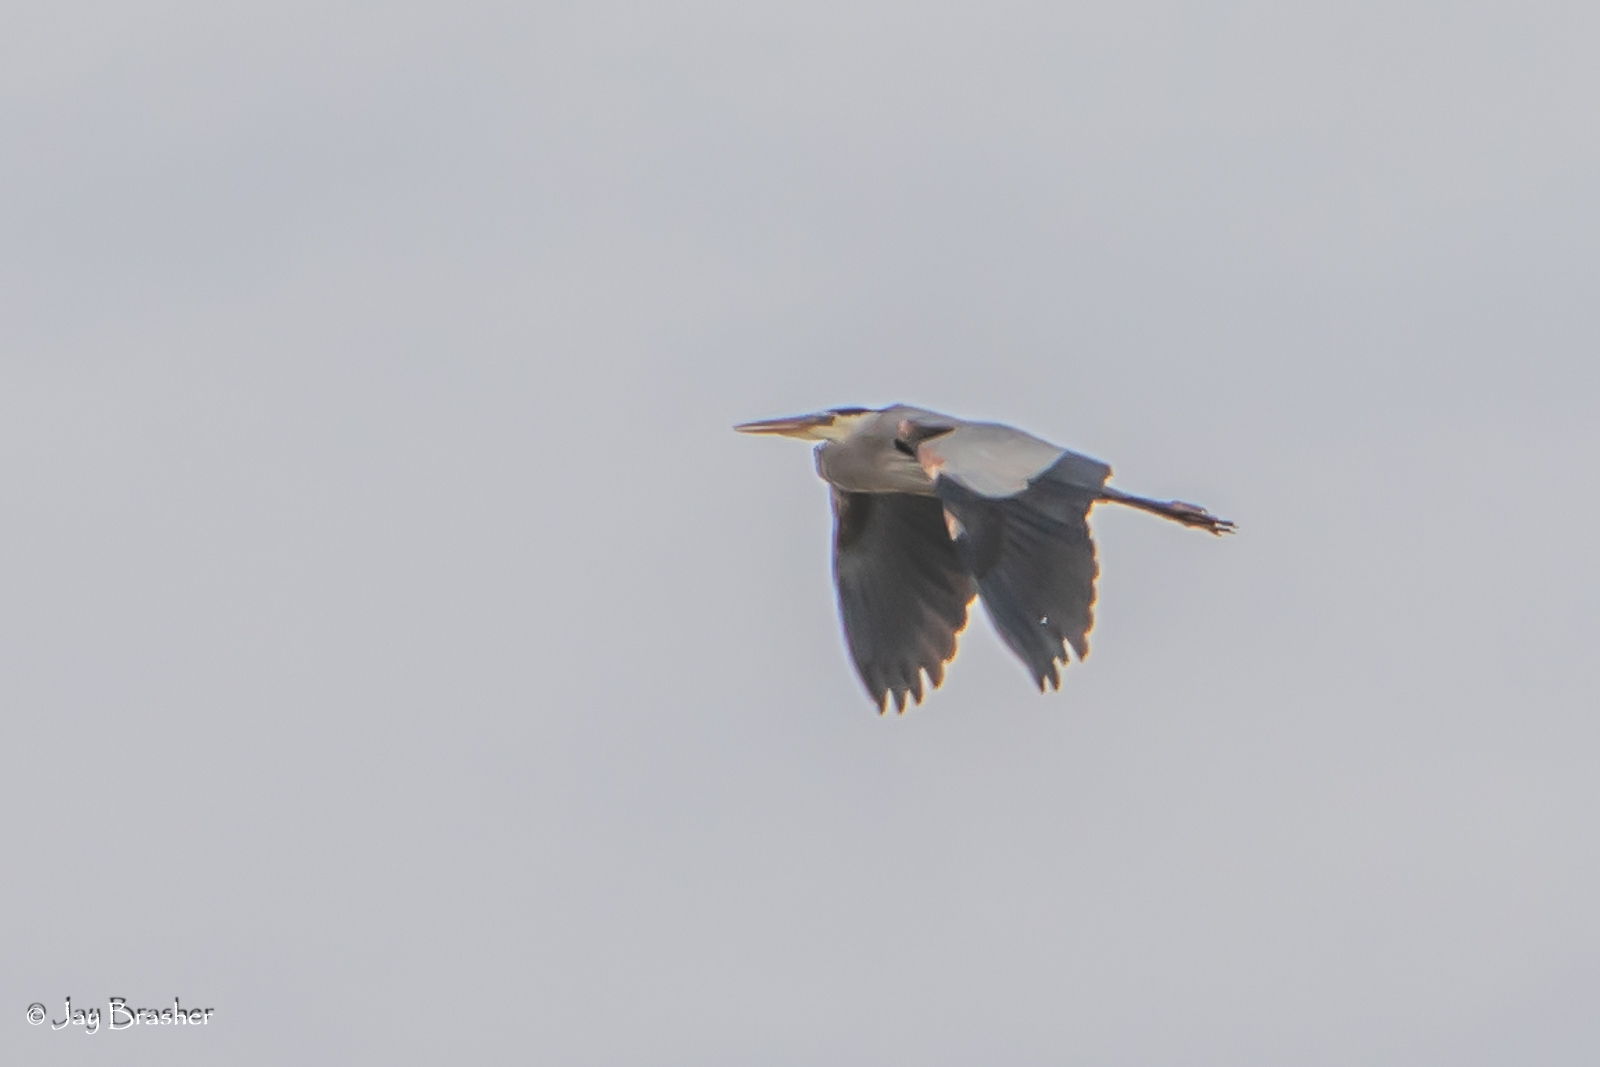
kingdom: Animalia
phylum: Chordata
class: Aves
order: Pelecaniformes
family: Ardeidae
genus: Ardea
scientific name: Ardea herodias
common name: Great blue heron
